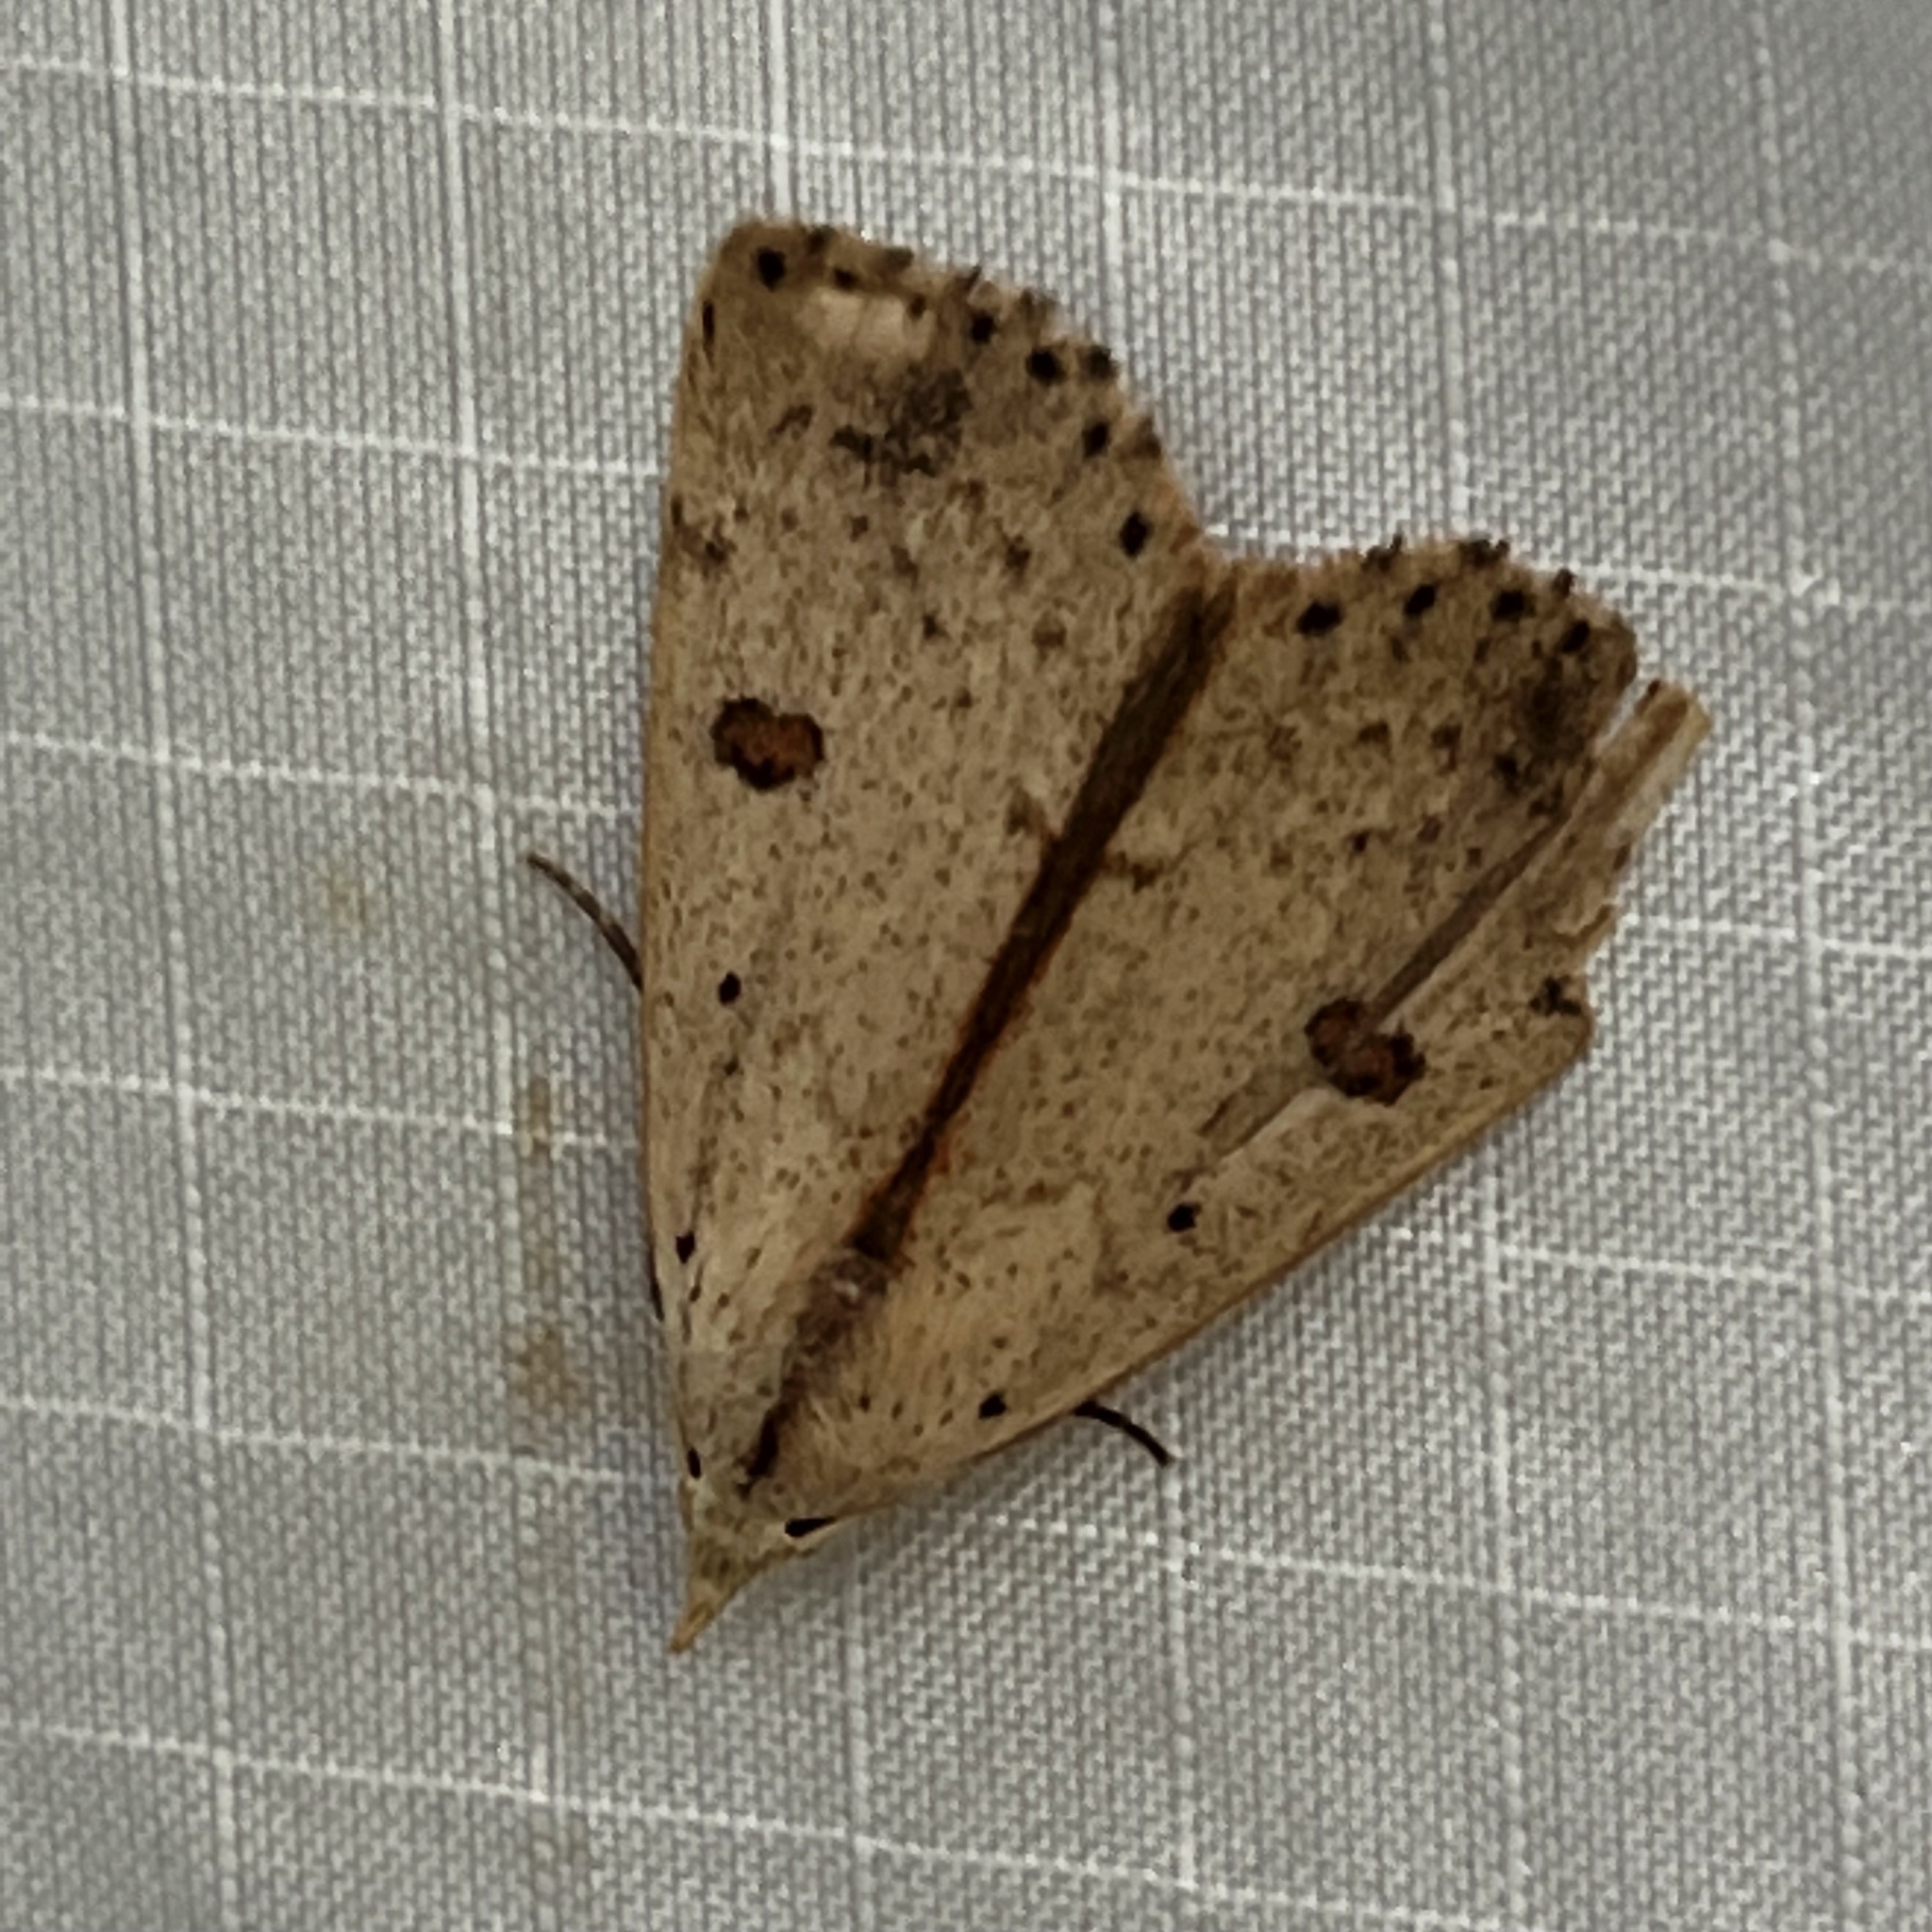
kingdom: Animalia
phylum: Arthropoda
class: Insecta
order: Lepidoptera
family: Erebidae
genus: Scolecocampa
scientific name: Scolecocampa liburna
